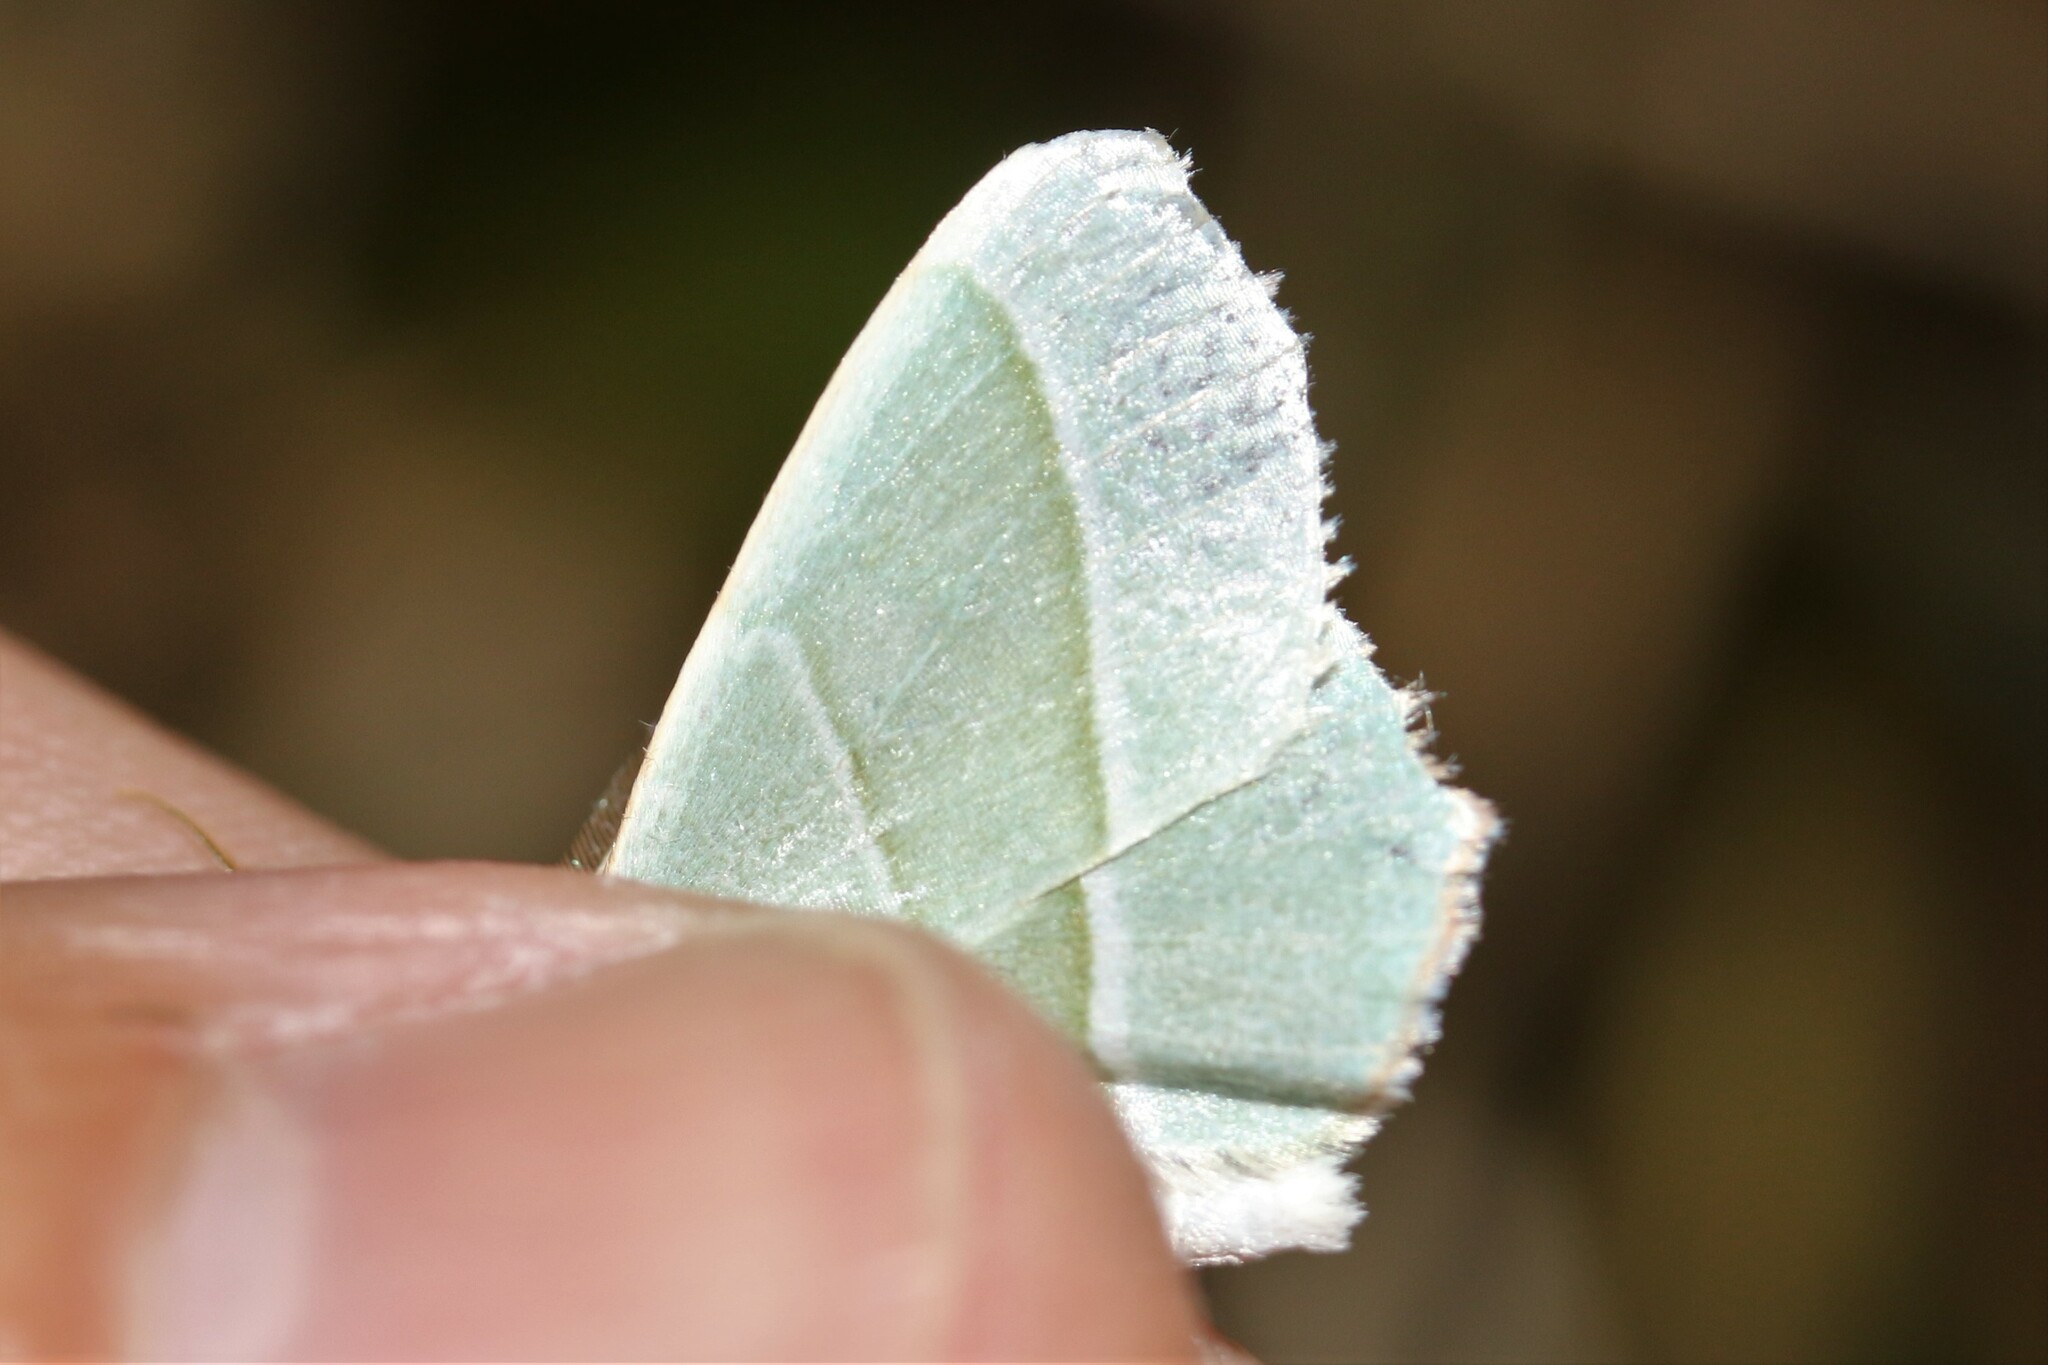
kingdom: Animalia
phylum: Arthropoda
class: Insecta
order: Lepidoptera
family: Geometridae
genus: Campaea
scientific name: Campaea margaritaria
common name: Light emerald
